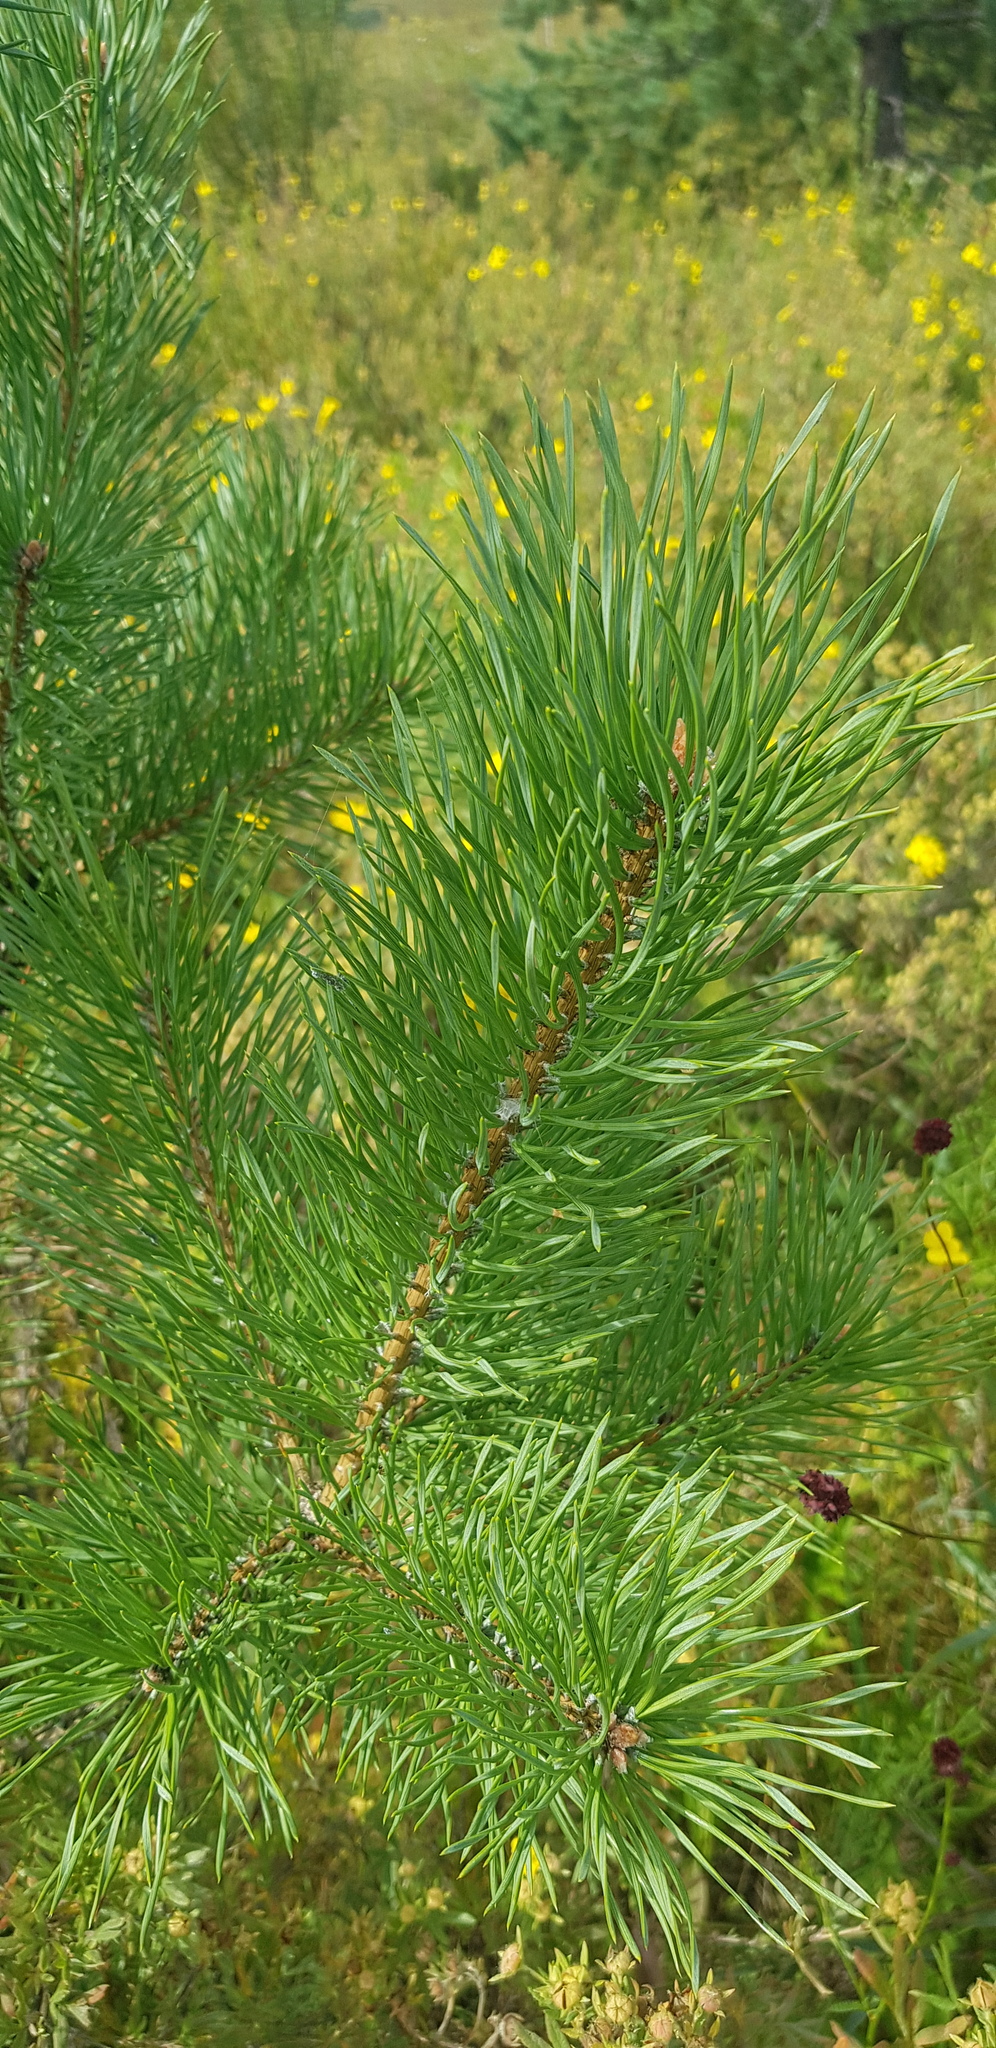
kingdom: Plantae
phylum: Tracheophyta
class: Pinopsida
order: Pinales
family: Pinaceae
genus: Pinus
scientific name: Pinus sylvestris
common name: Scots pine
